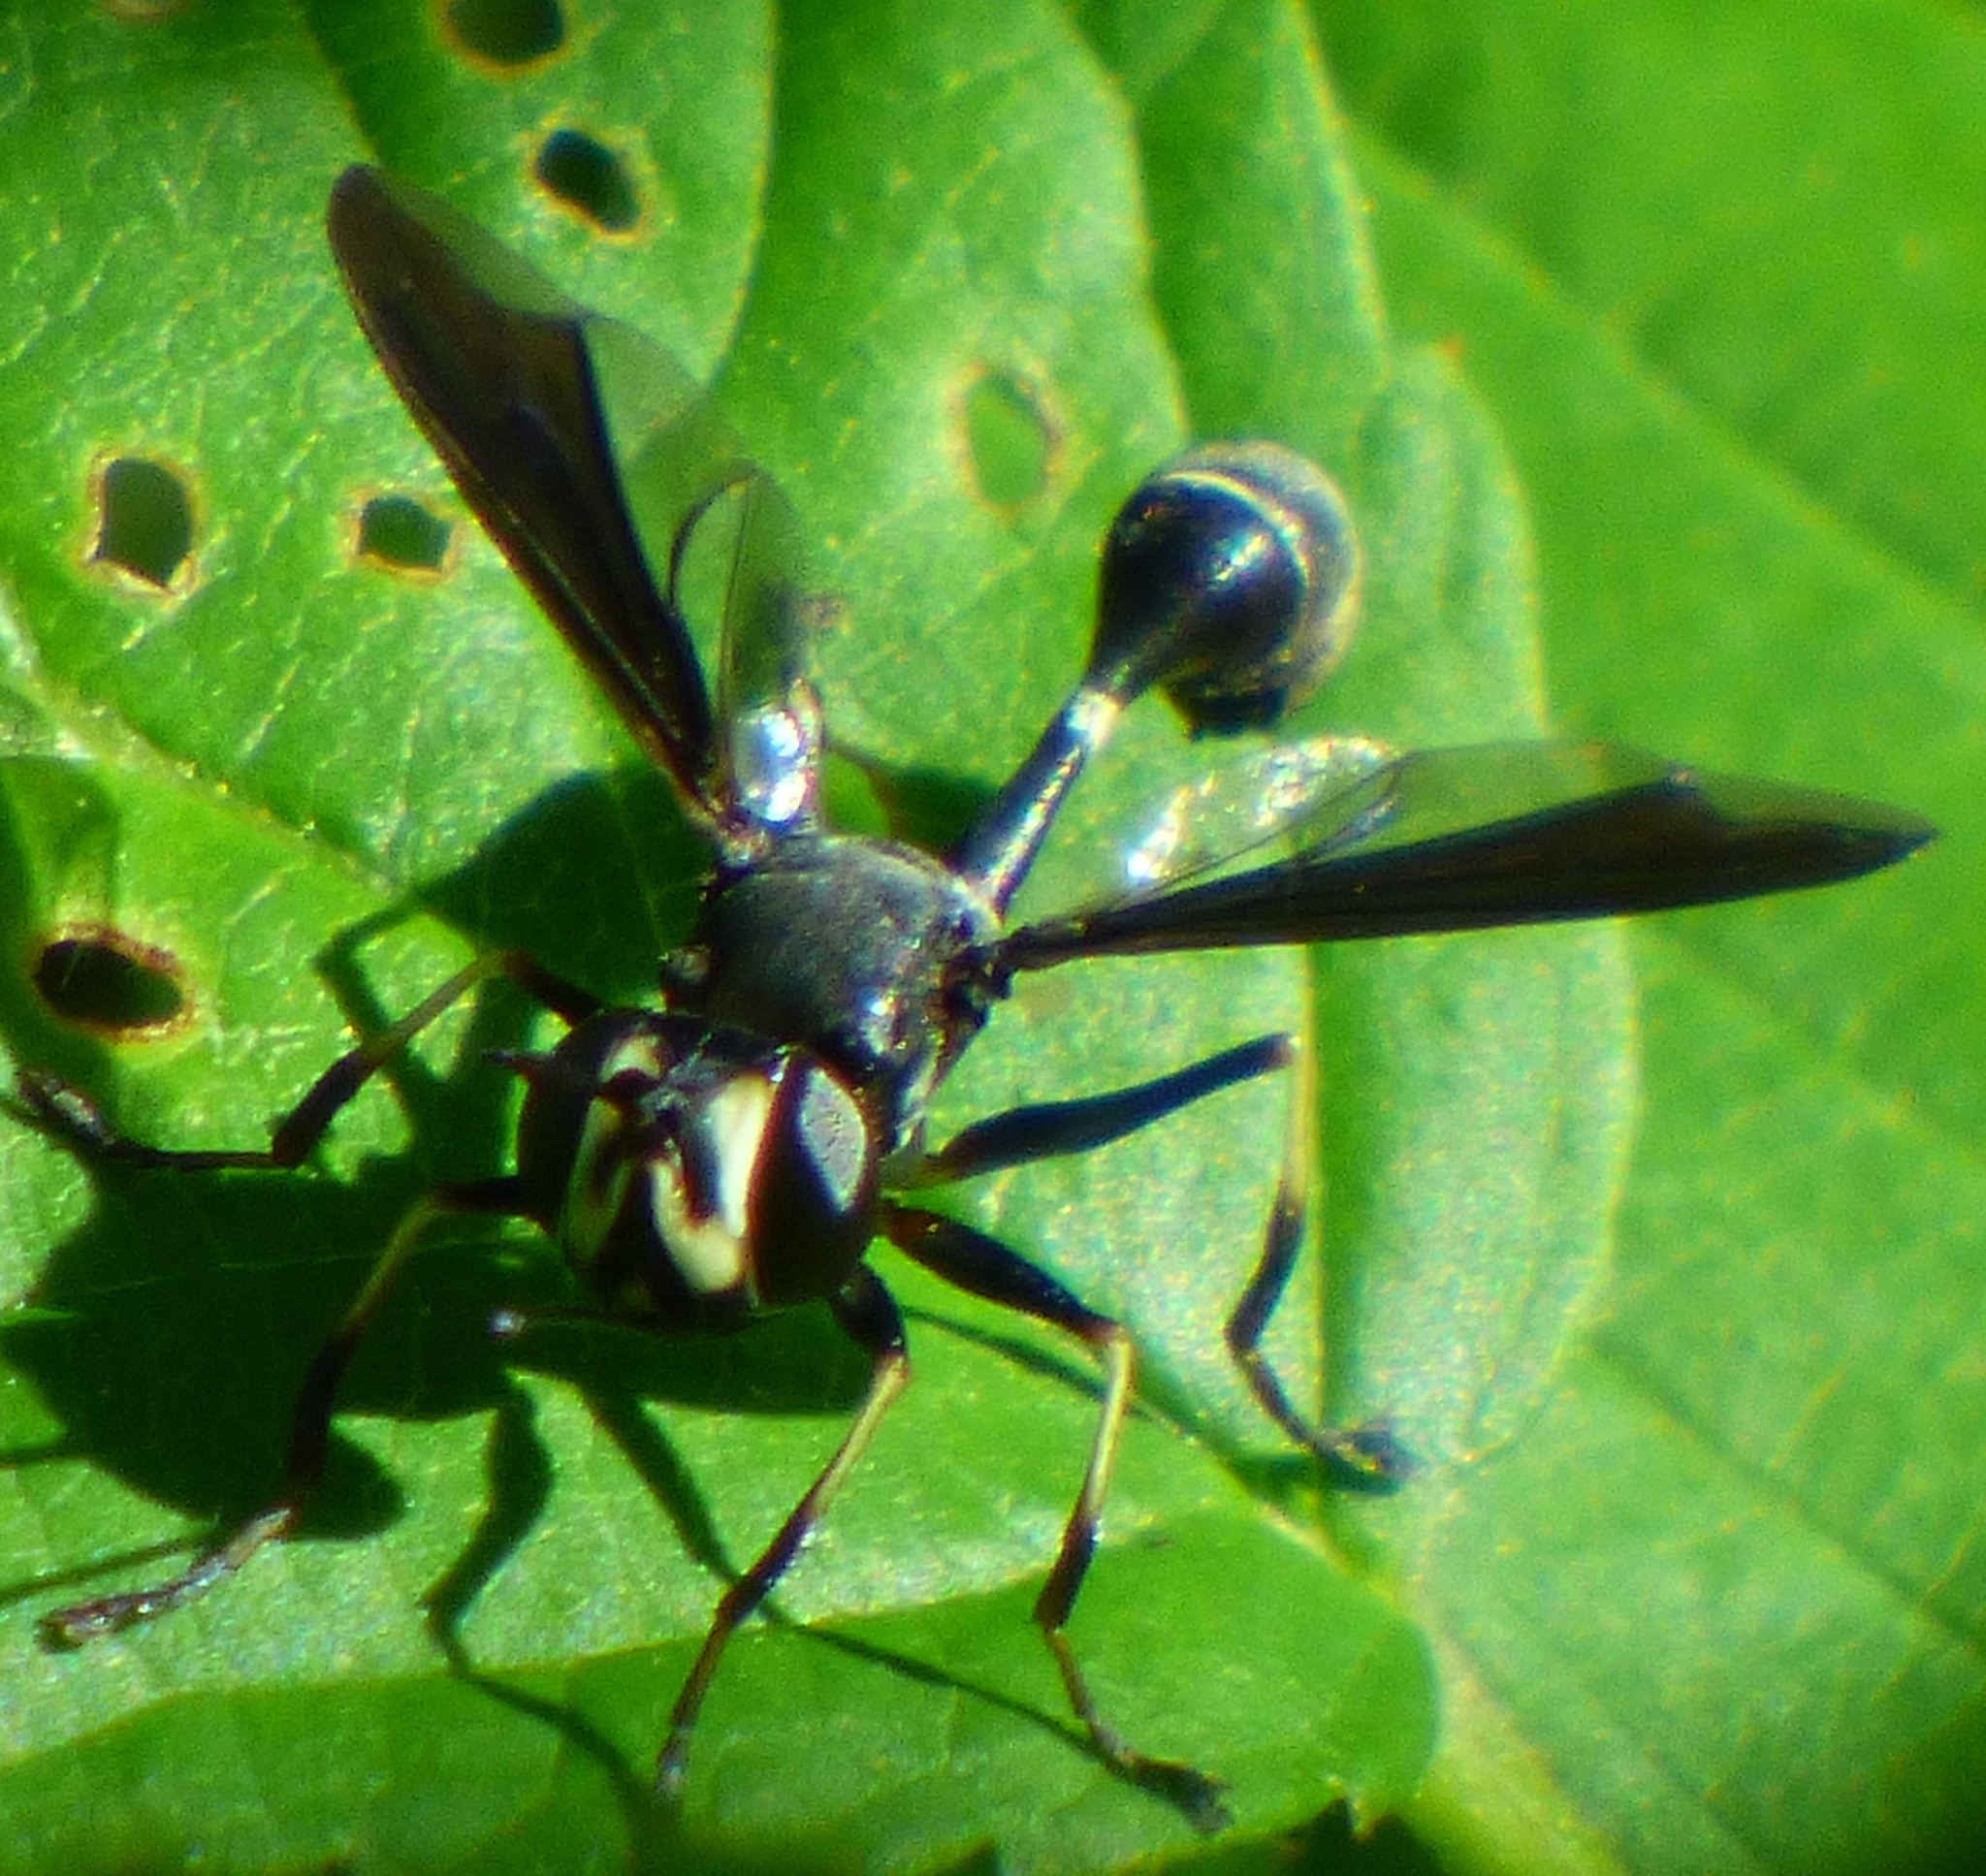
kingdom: Animalia
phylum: Arthropoda
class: Insecta
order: Diptera
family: Conopidae
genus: Physocephala
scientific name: Physocephala tibialis
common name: Common eastern physocephala
